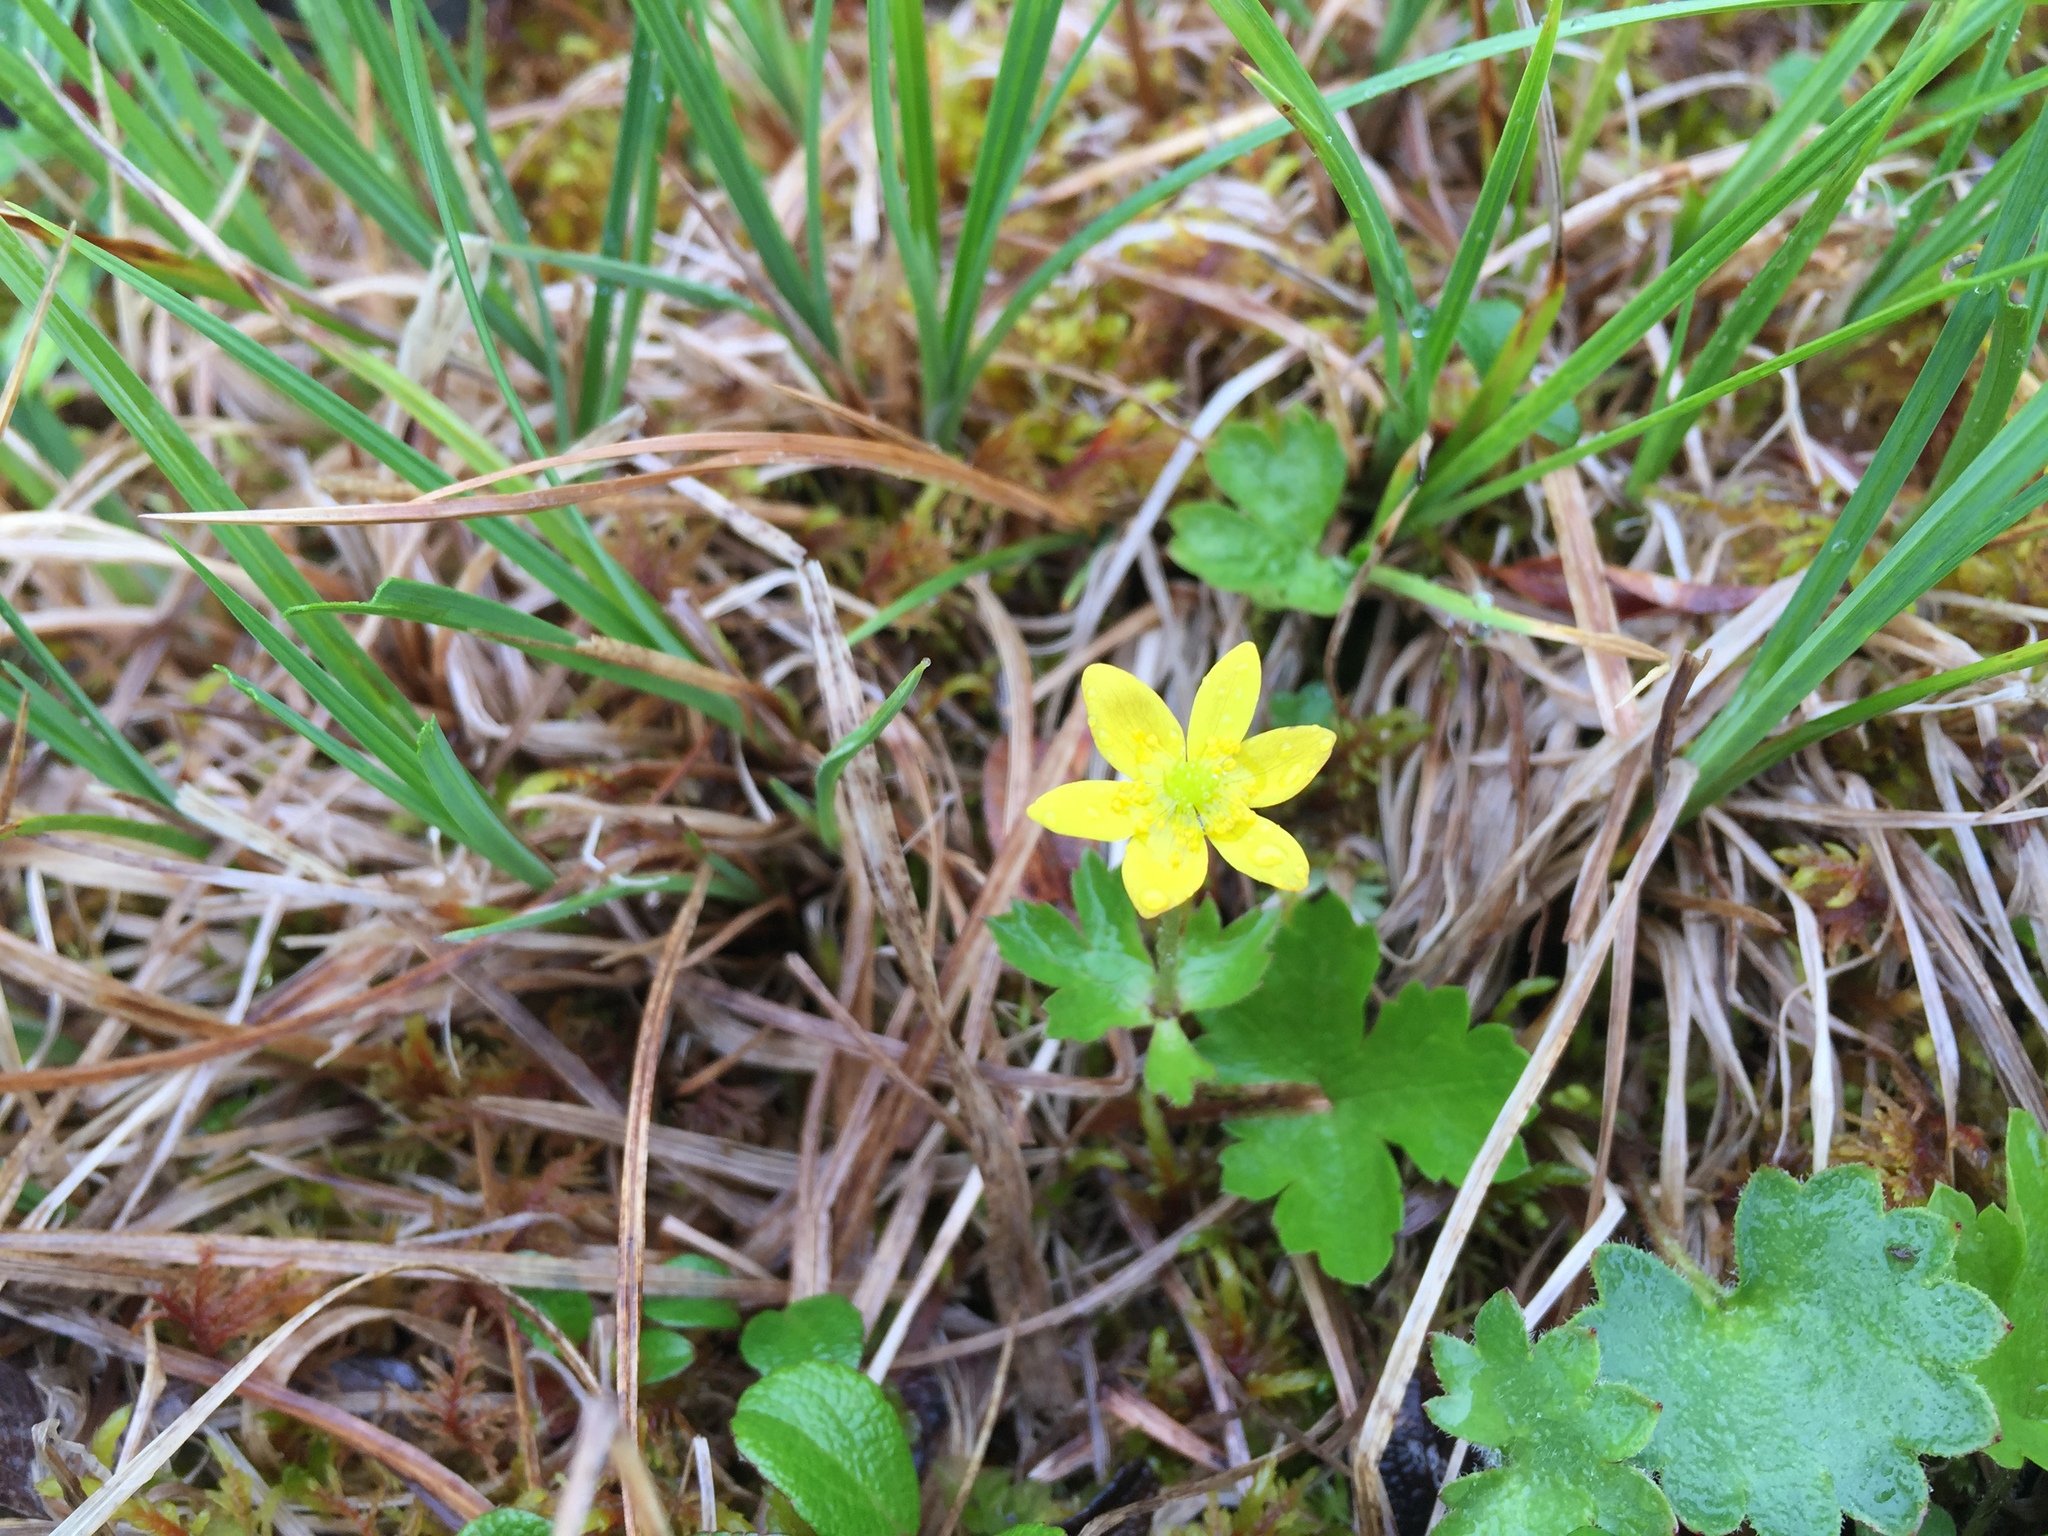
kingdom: Plantae
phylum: Tracheophyta
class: Magnoliopsida
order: Ranunculales
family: Ranunculaceae
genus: Anemonastrum
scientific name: Anemonastrum richardsonii
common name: Richardson's anemone
